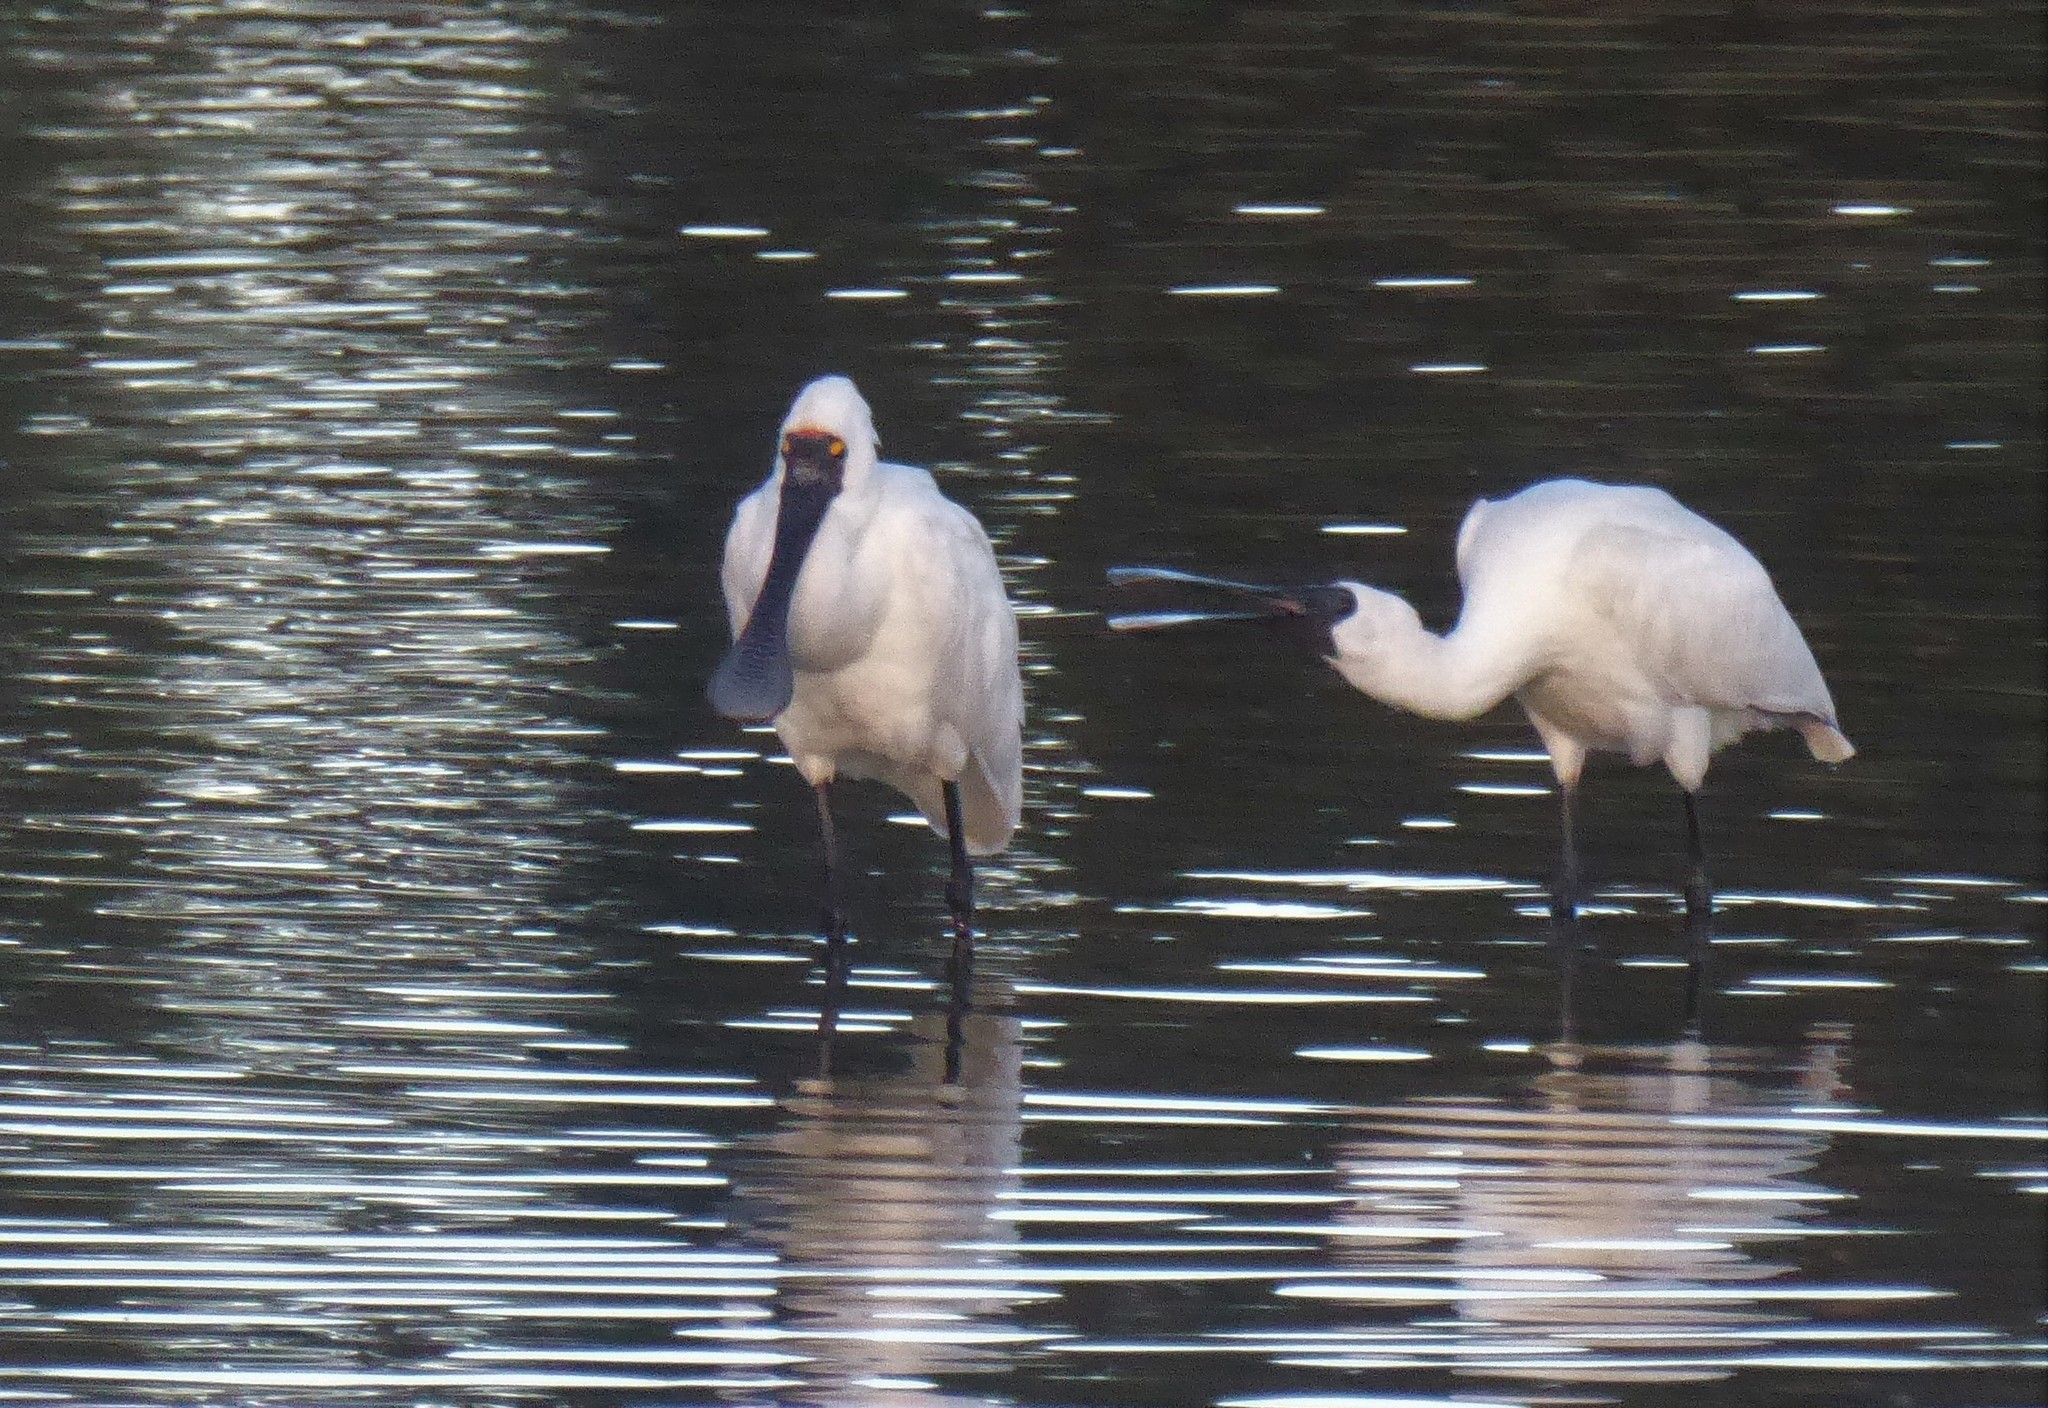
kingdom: Animalia
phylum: Chordata
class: Aves
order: Pelecaniformes
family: Threskiornithidae
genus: Platalea
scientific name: Platalea regia
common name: Royal spoonbill
